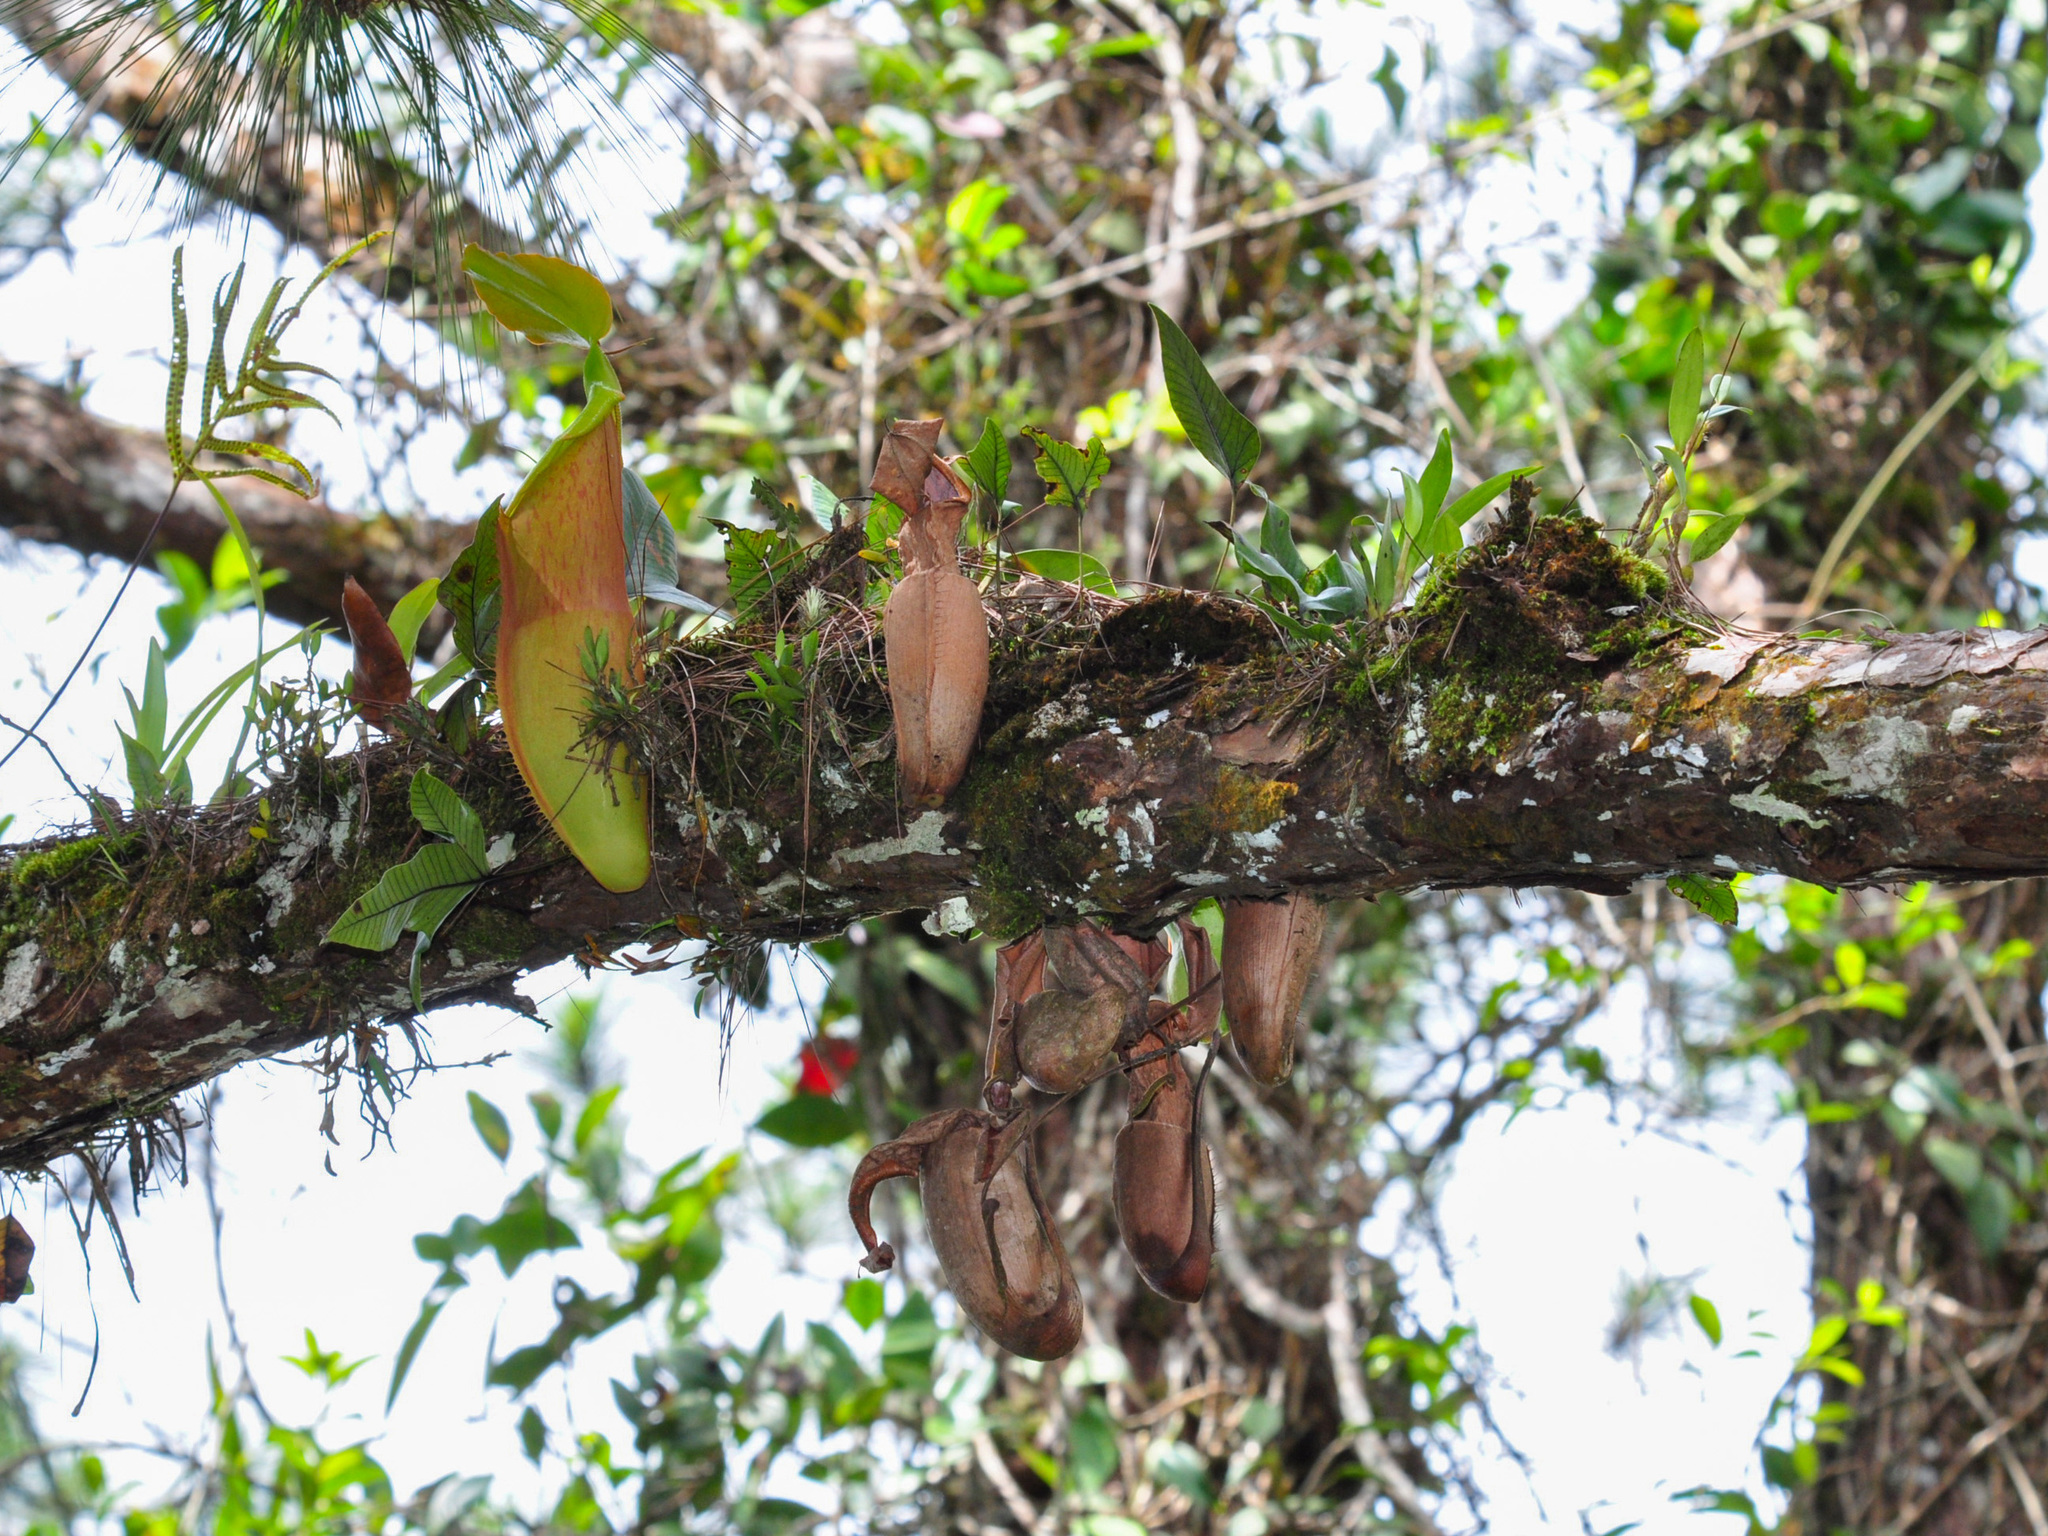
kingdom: Plantae
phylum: Tracheophyta
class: Magnoliopsida
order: Caryophyllales
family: Nepenthaceae
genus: Nepenthes
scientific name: Nepenthes sanguinea
